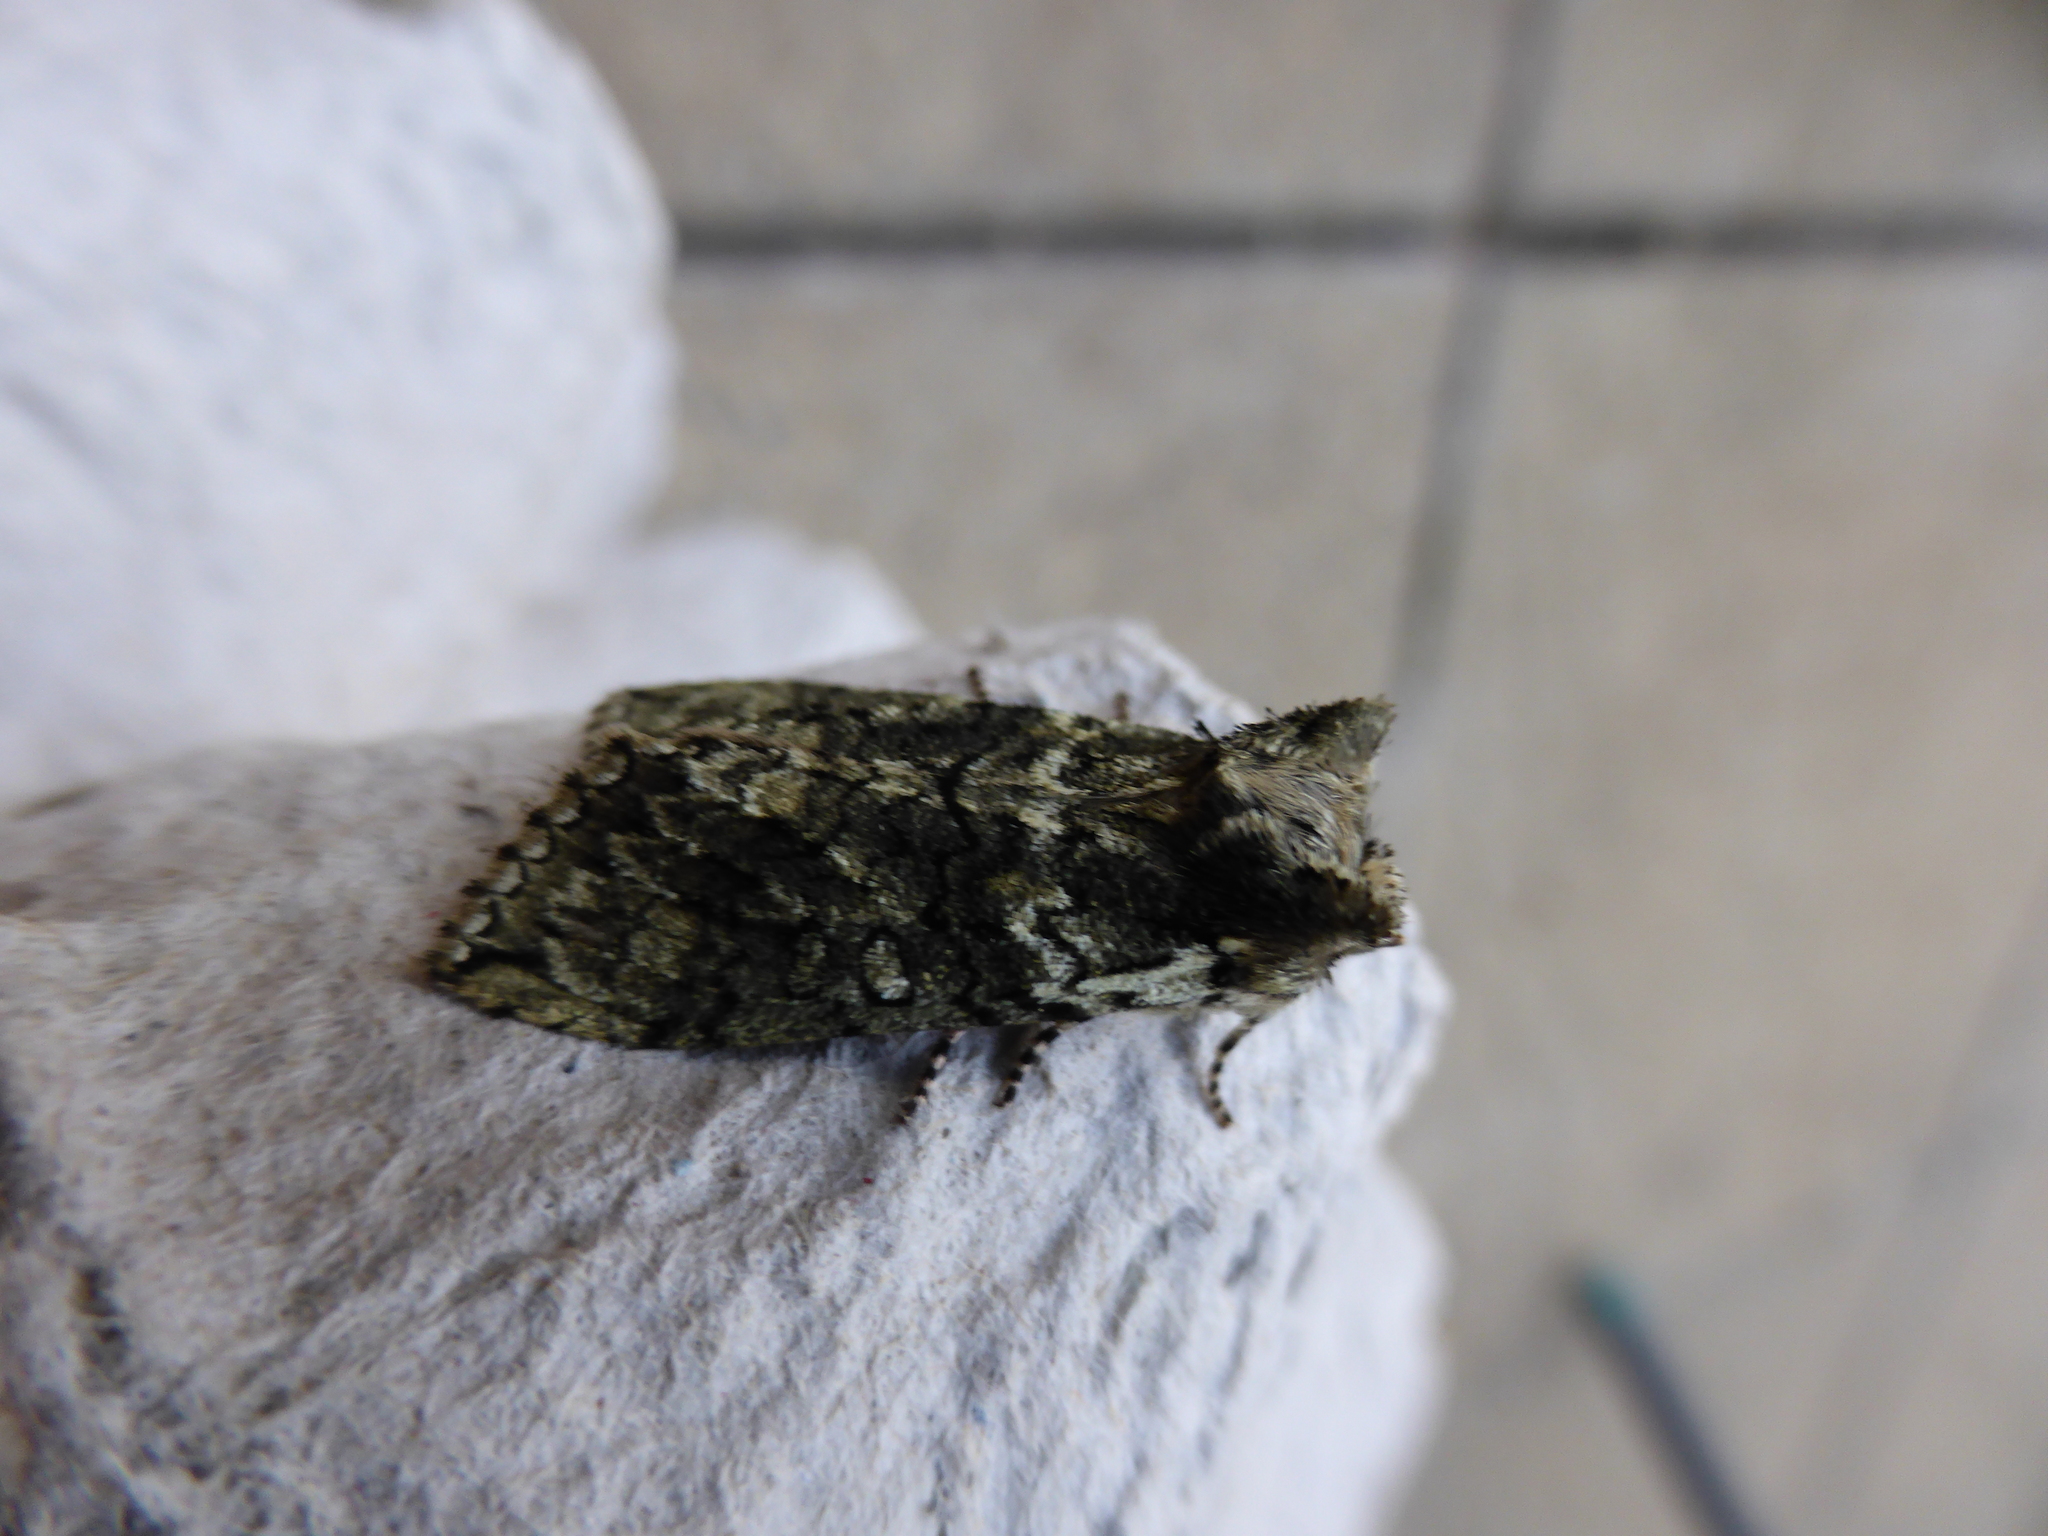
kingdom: Animalia
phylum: Arthropoda
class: Insecta
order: Lepidoptera
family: Drepanidae
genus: Polyploca
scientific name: Polyploca ridens
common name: Frosted green
